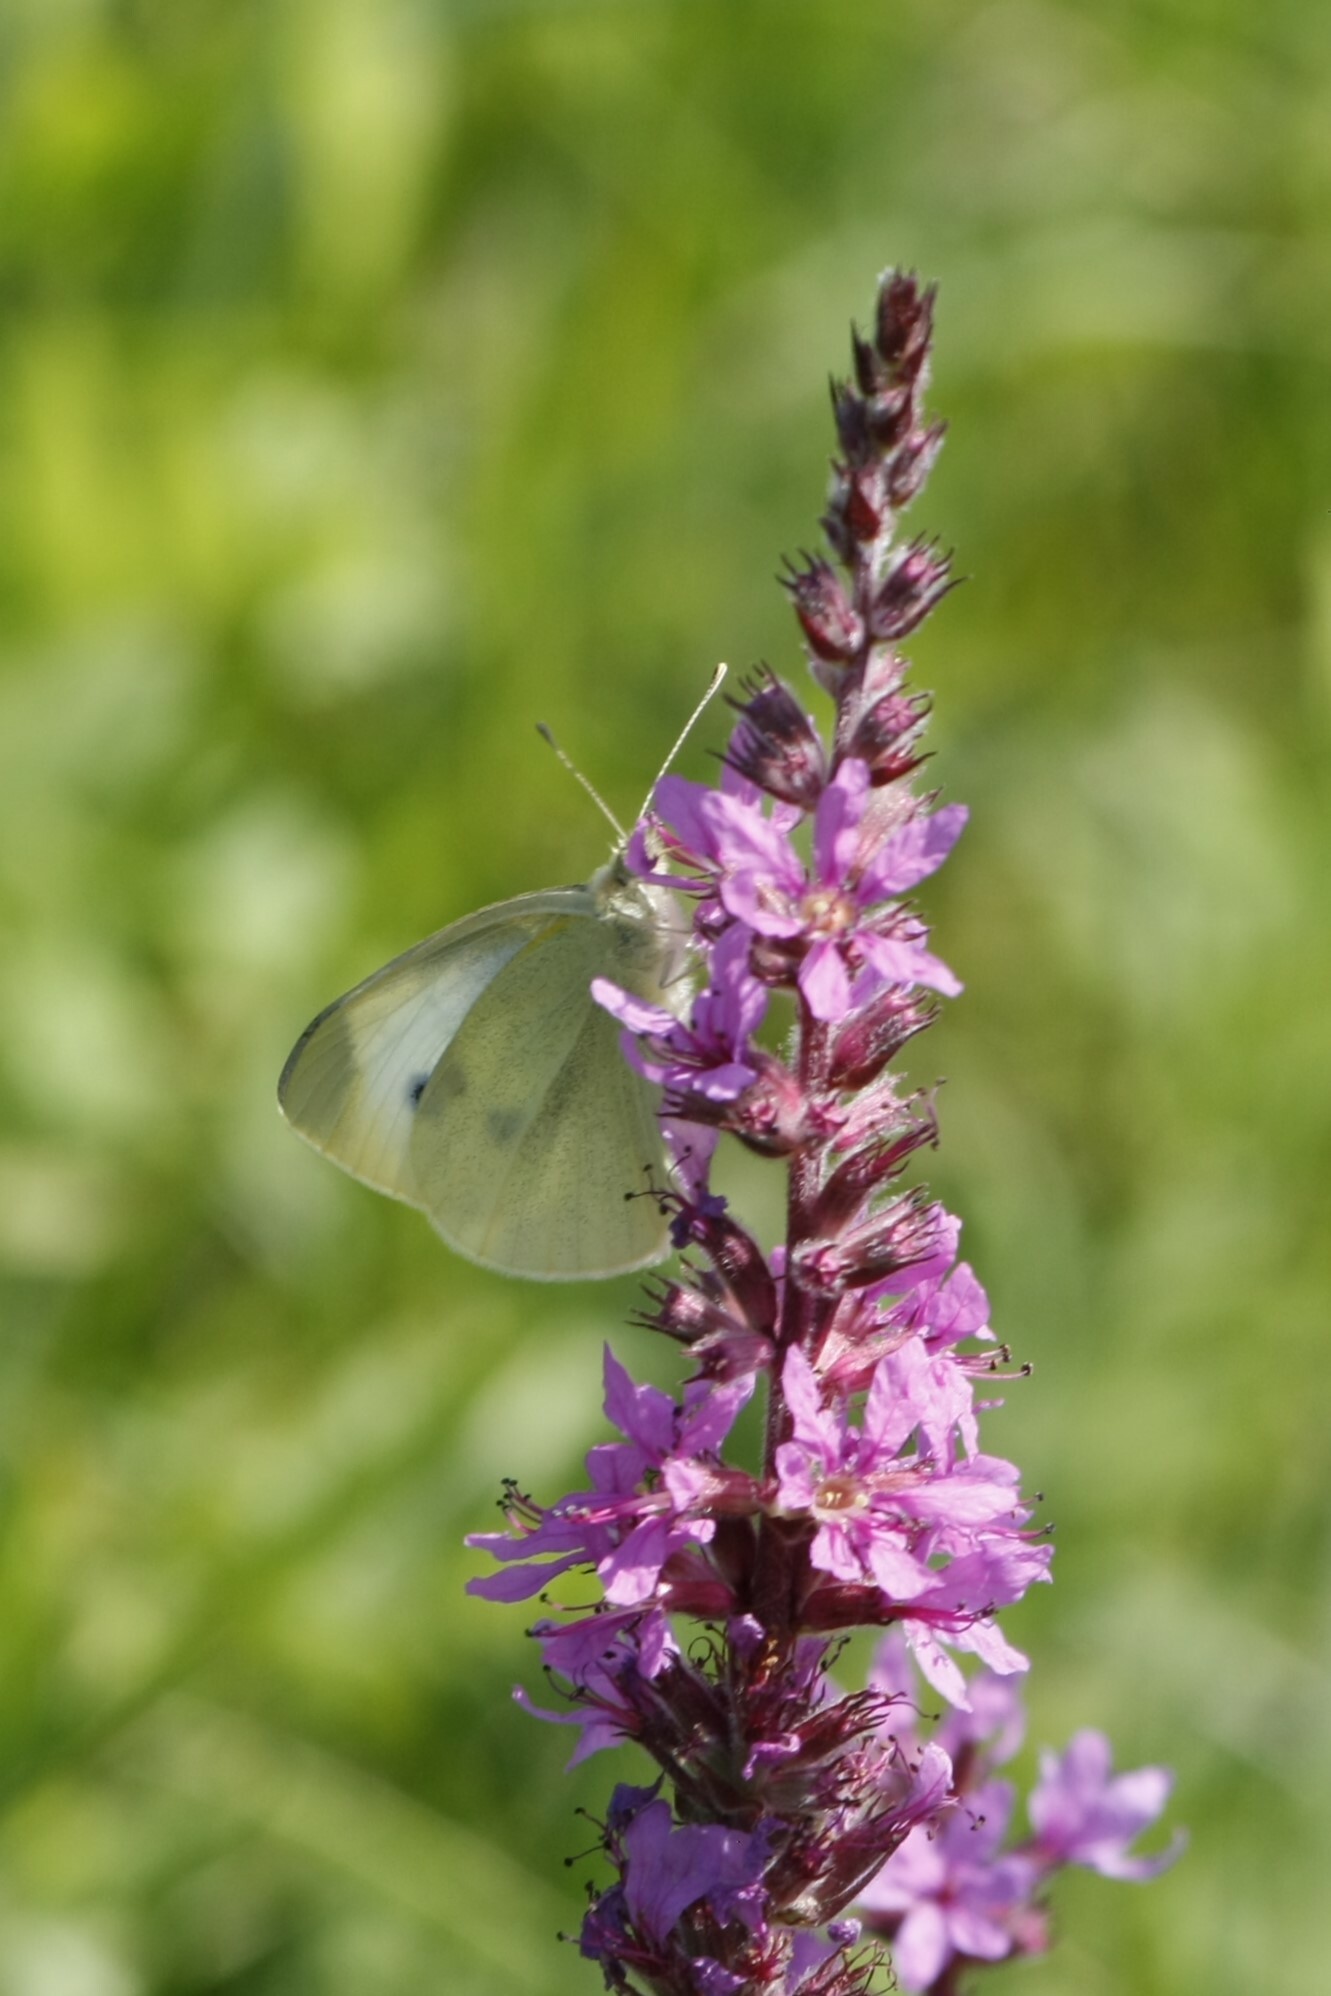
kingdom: Animalia
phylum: Arthropoda
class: Insecta
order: Lepidoptera
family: Pieridae
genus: Pieris
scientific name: Pieris rapae
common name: Small white
